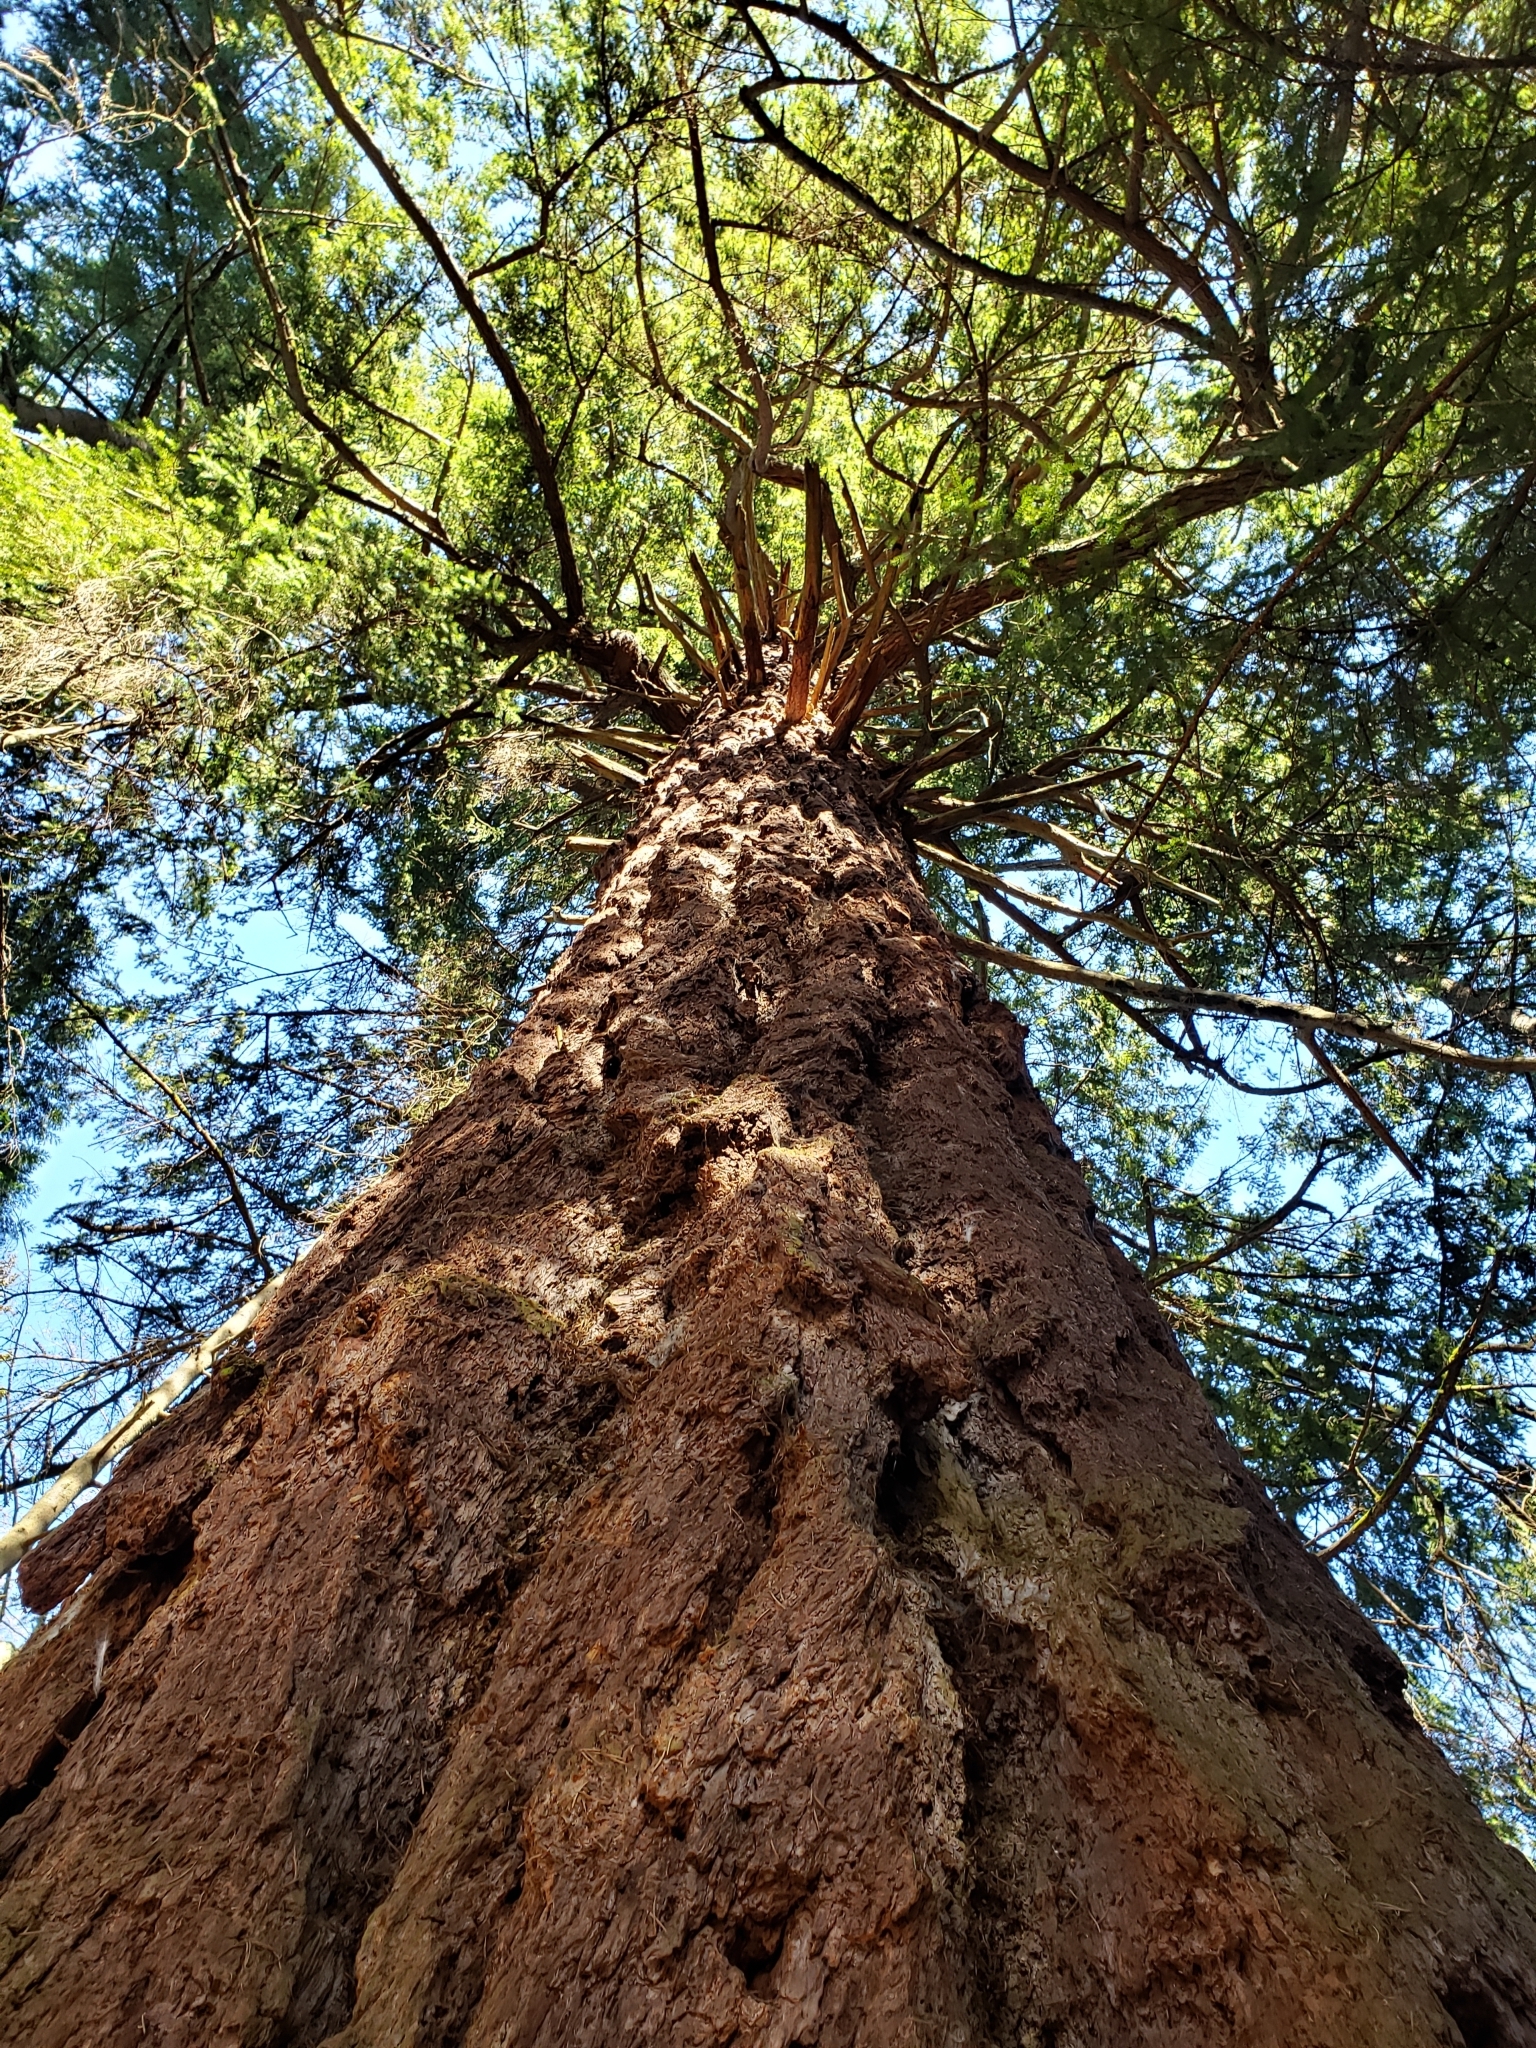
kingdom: Plantae
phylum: Tracheophyta
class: Pinopsida
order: Pinales
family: Pinaceae
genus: Pseudotsuga
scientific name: Pseudotsuga menziesii
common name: Douglas fir
